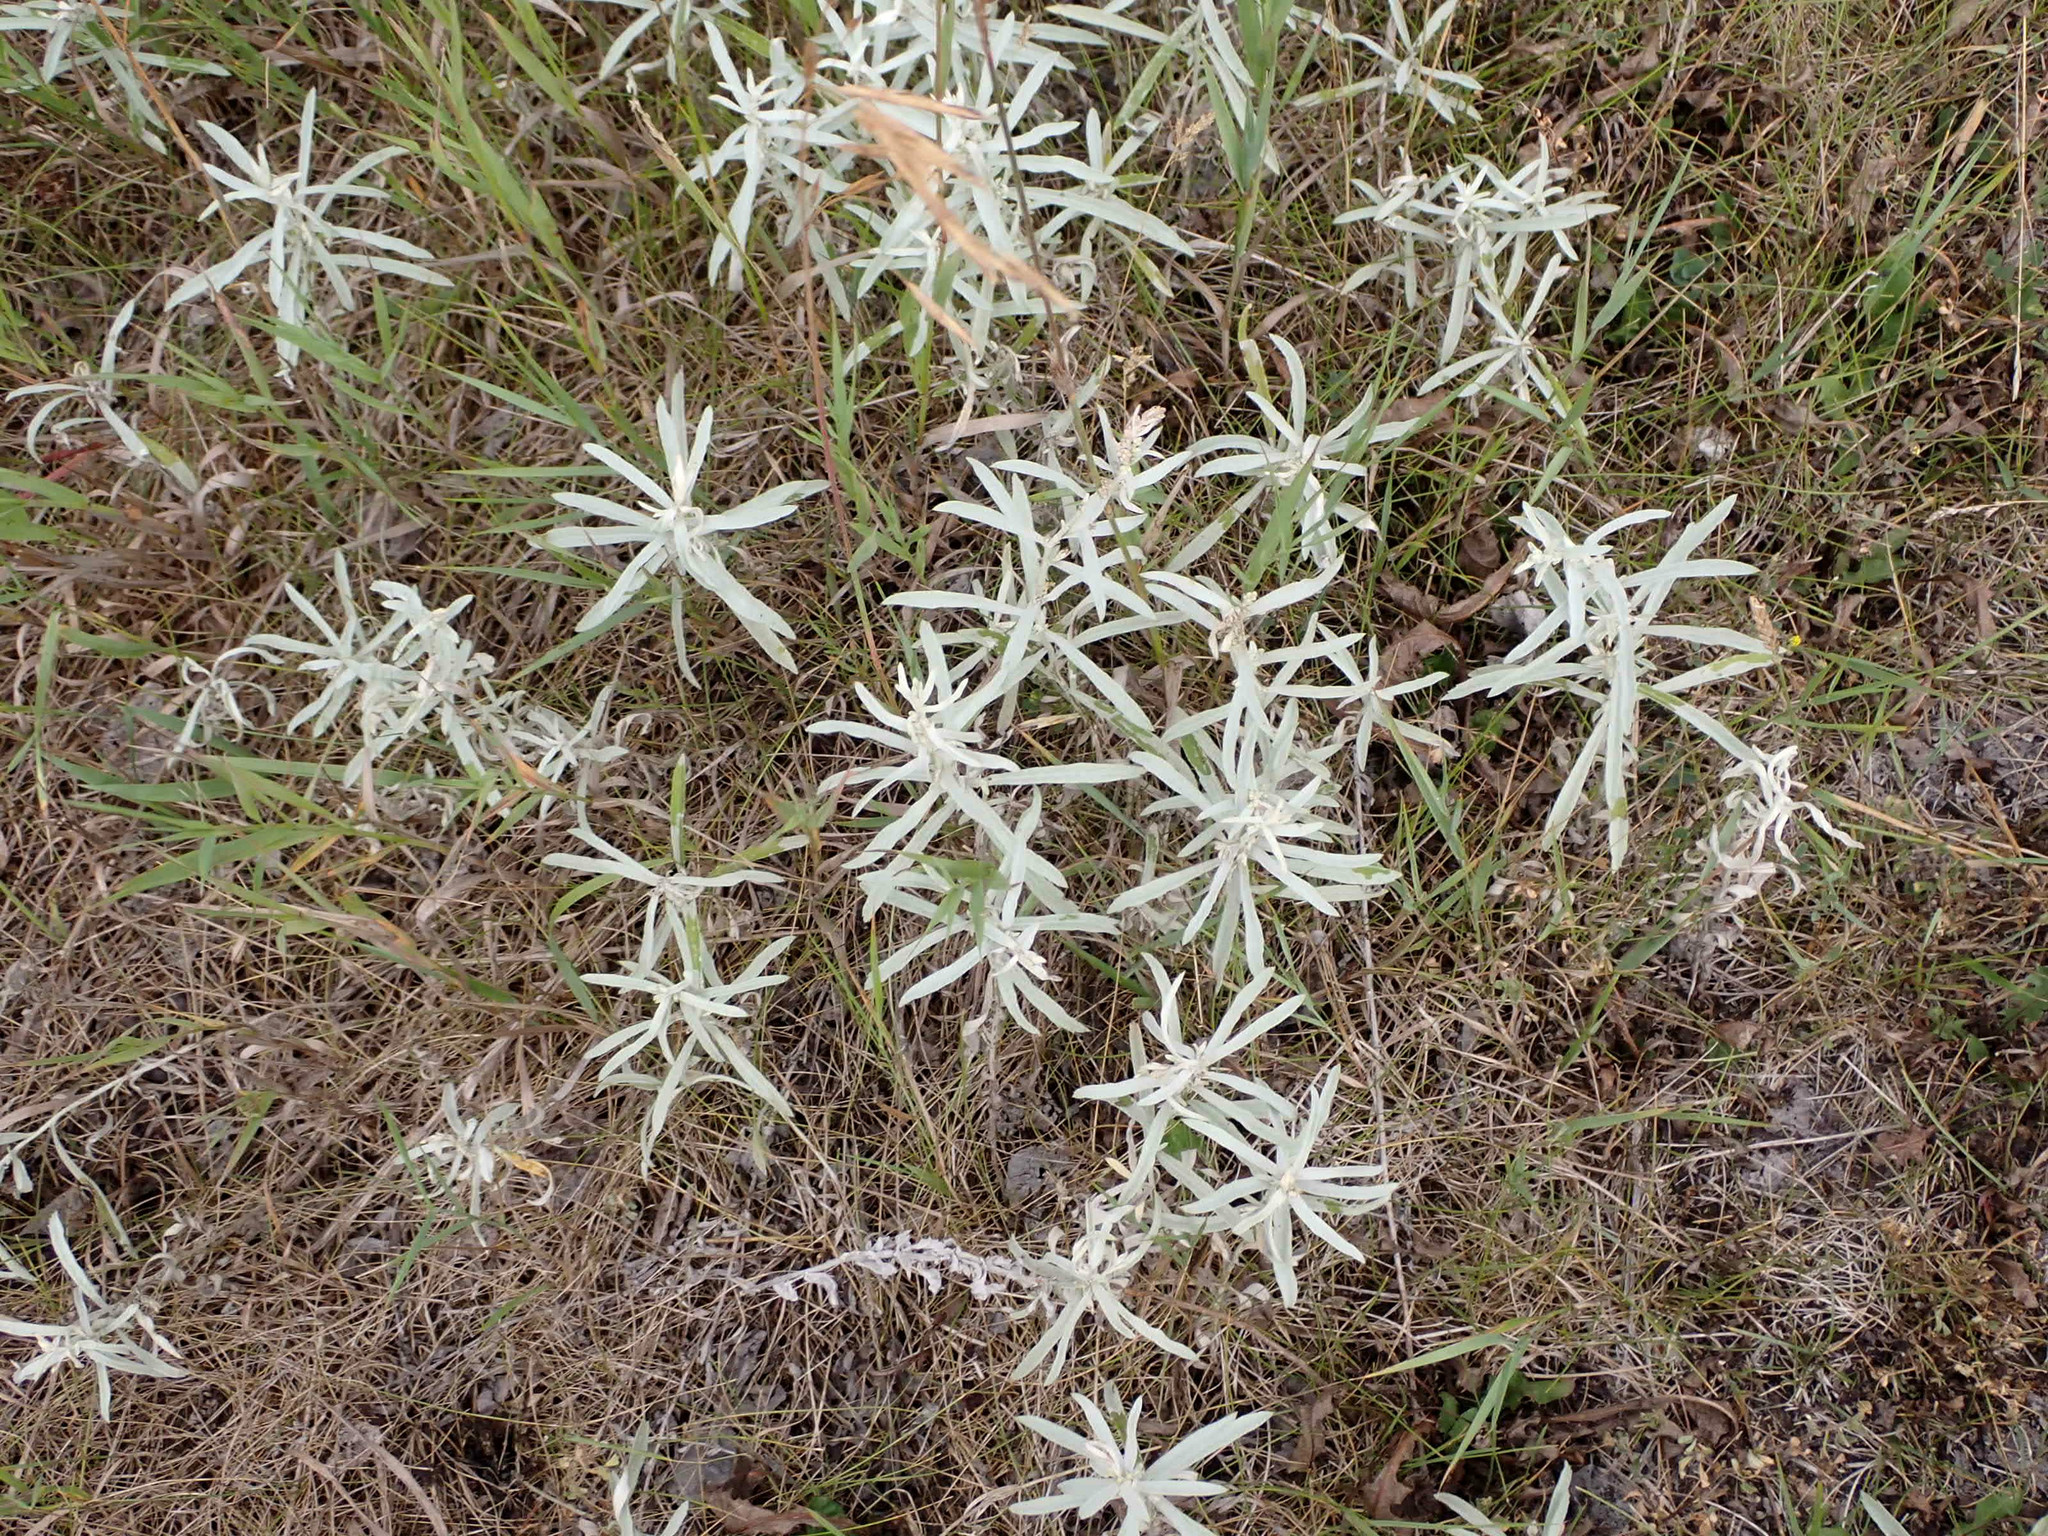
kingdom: Plantae
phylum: Tracheophyta
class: Magnoliopsida
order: Asterales
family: Asteraceae
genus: Artemisia
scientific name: Artemisia ludoviciana
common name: Western mugwort
